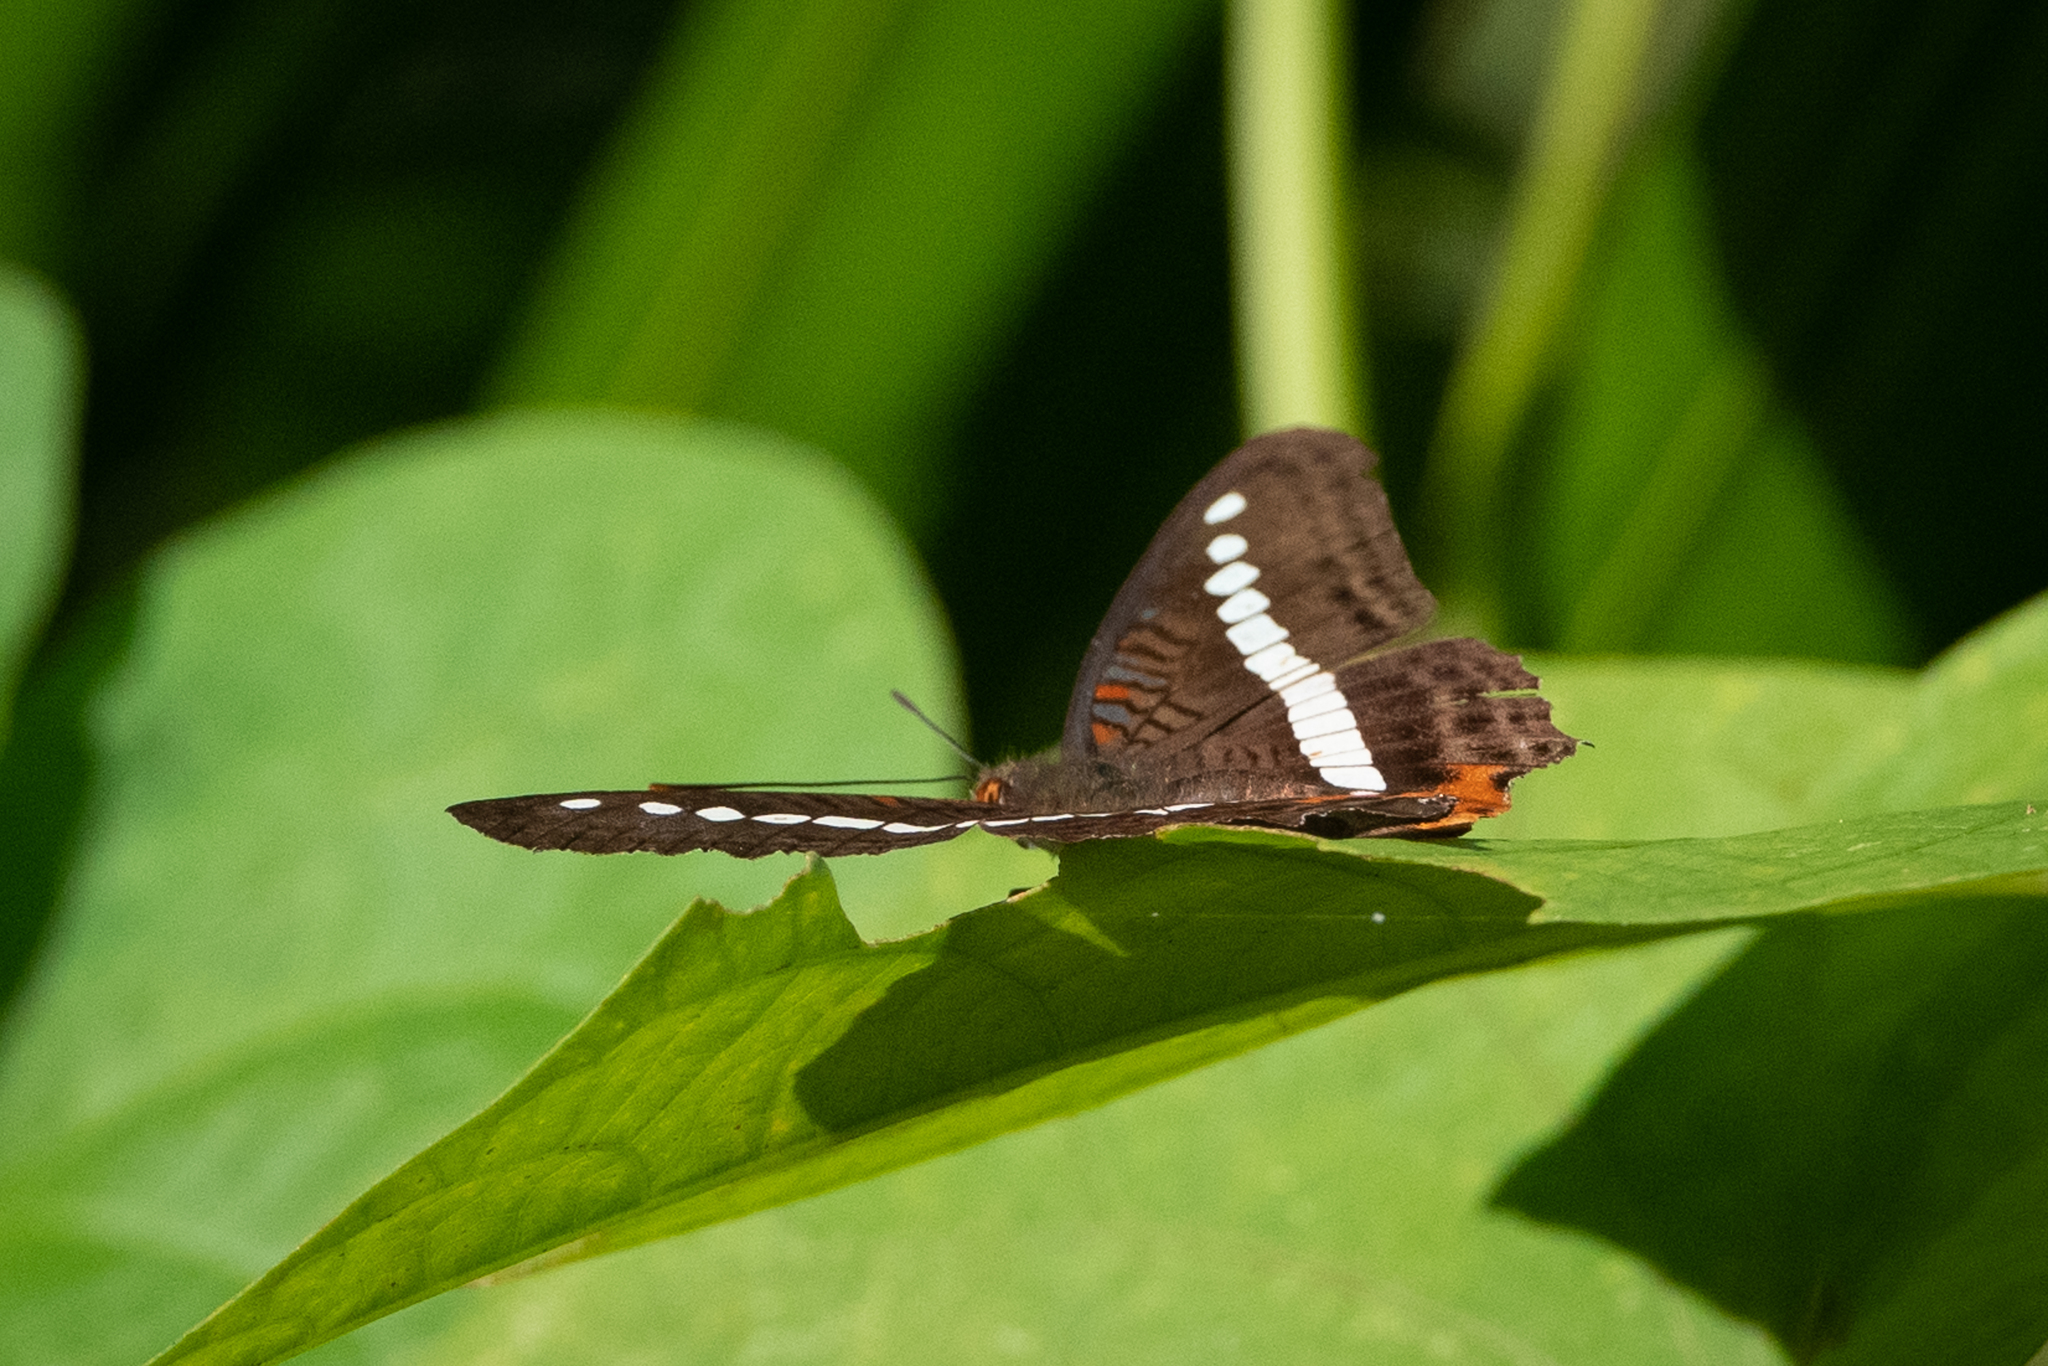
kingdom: Animalia
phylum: Arthropoda
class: Insecta
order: Lepidoptera
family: Nymphalidae
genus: Limenitis
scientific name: Limenitis gelania
